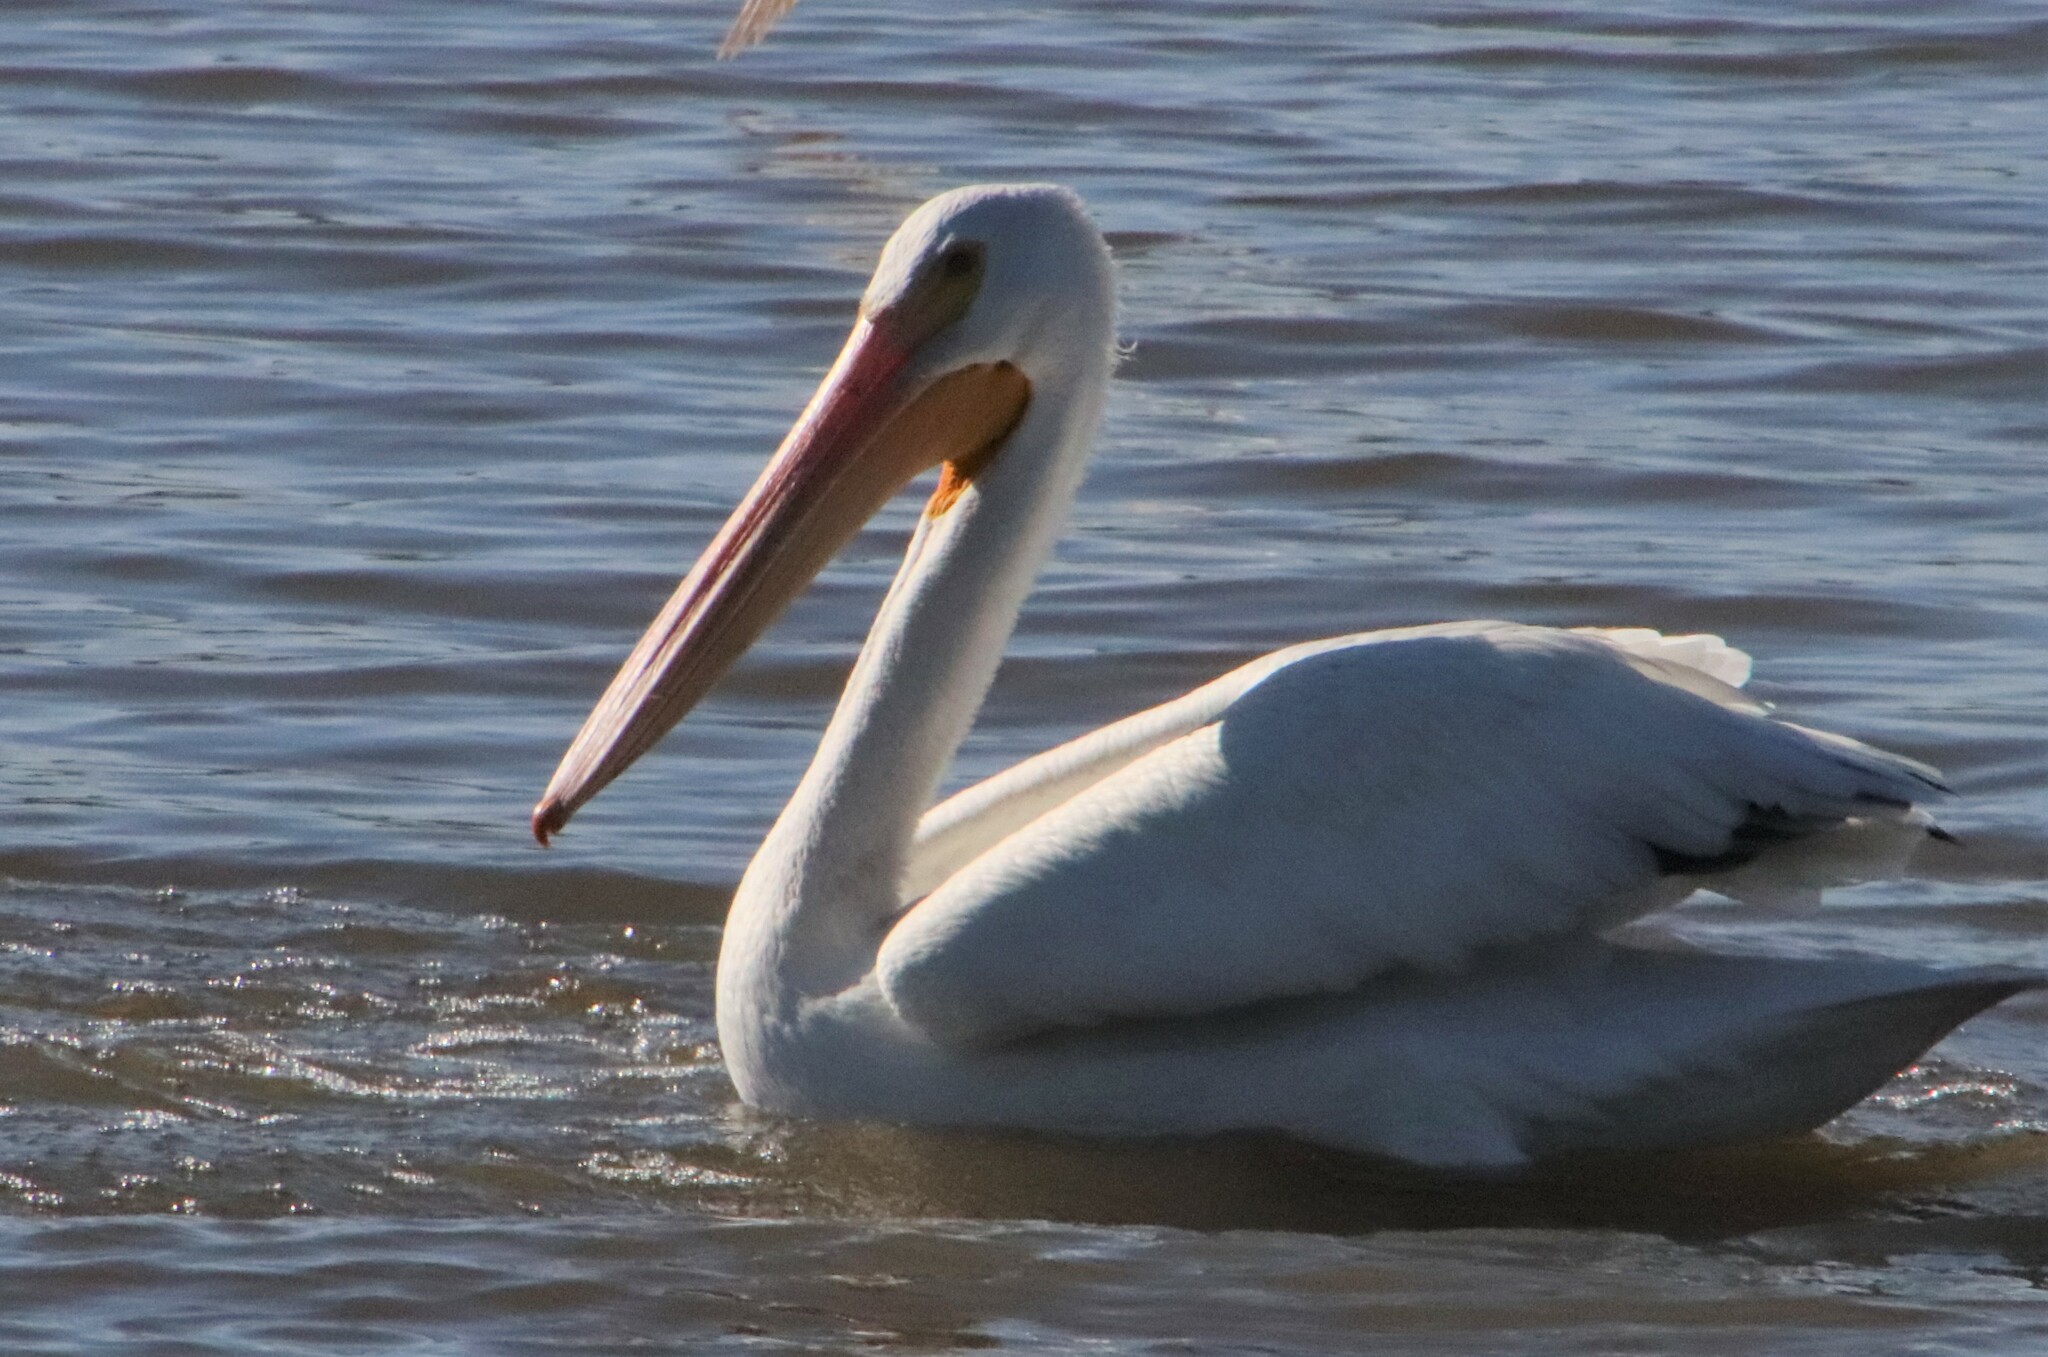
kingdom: Animalia
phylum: Chordata
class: Aves
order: Pelecaniformes
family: Pelecanidae
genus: Pelecanus
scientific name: Pelecanus erythrorhynchos
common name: American white pelican
